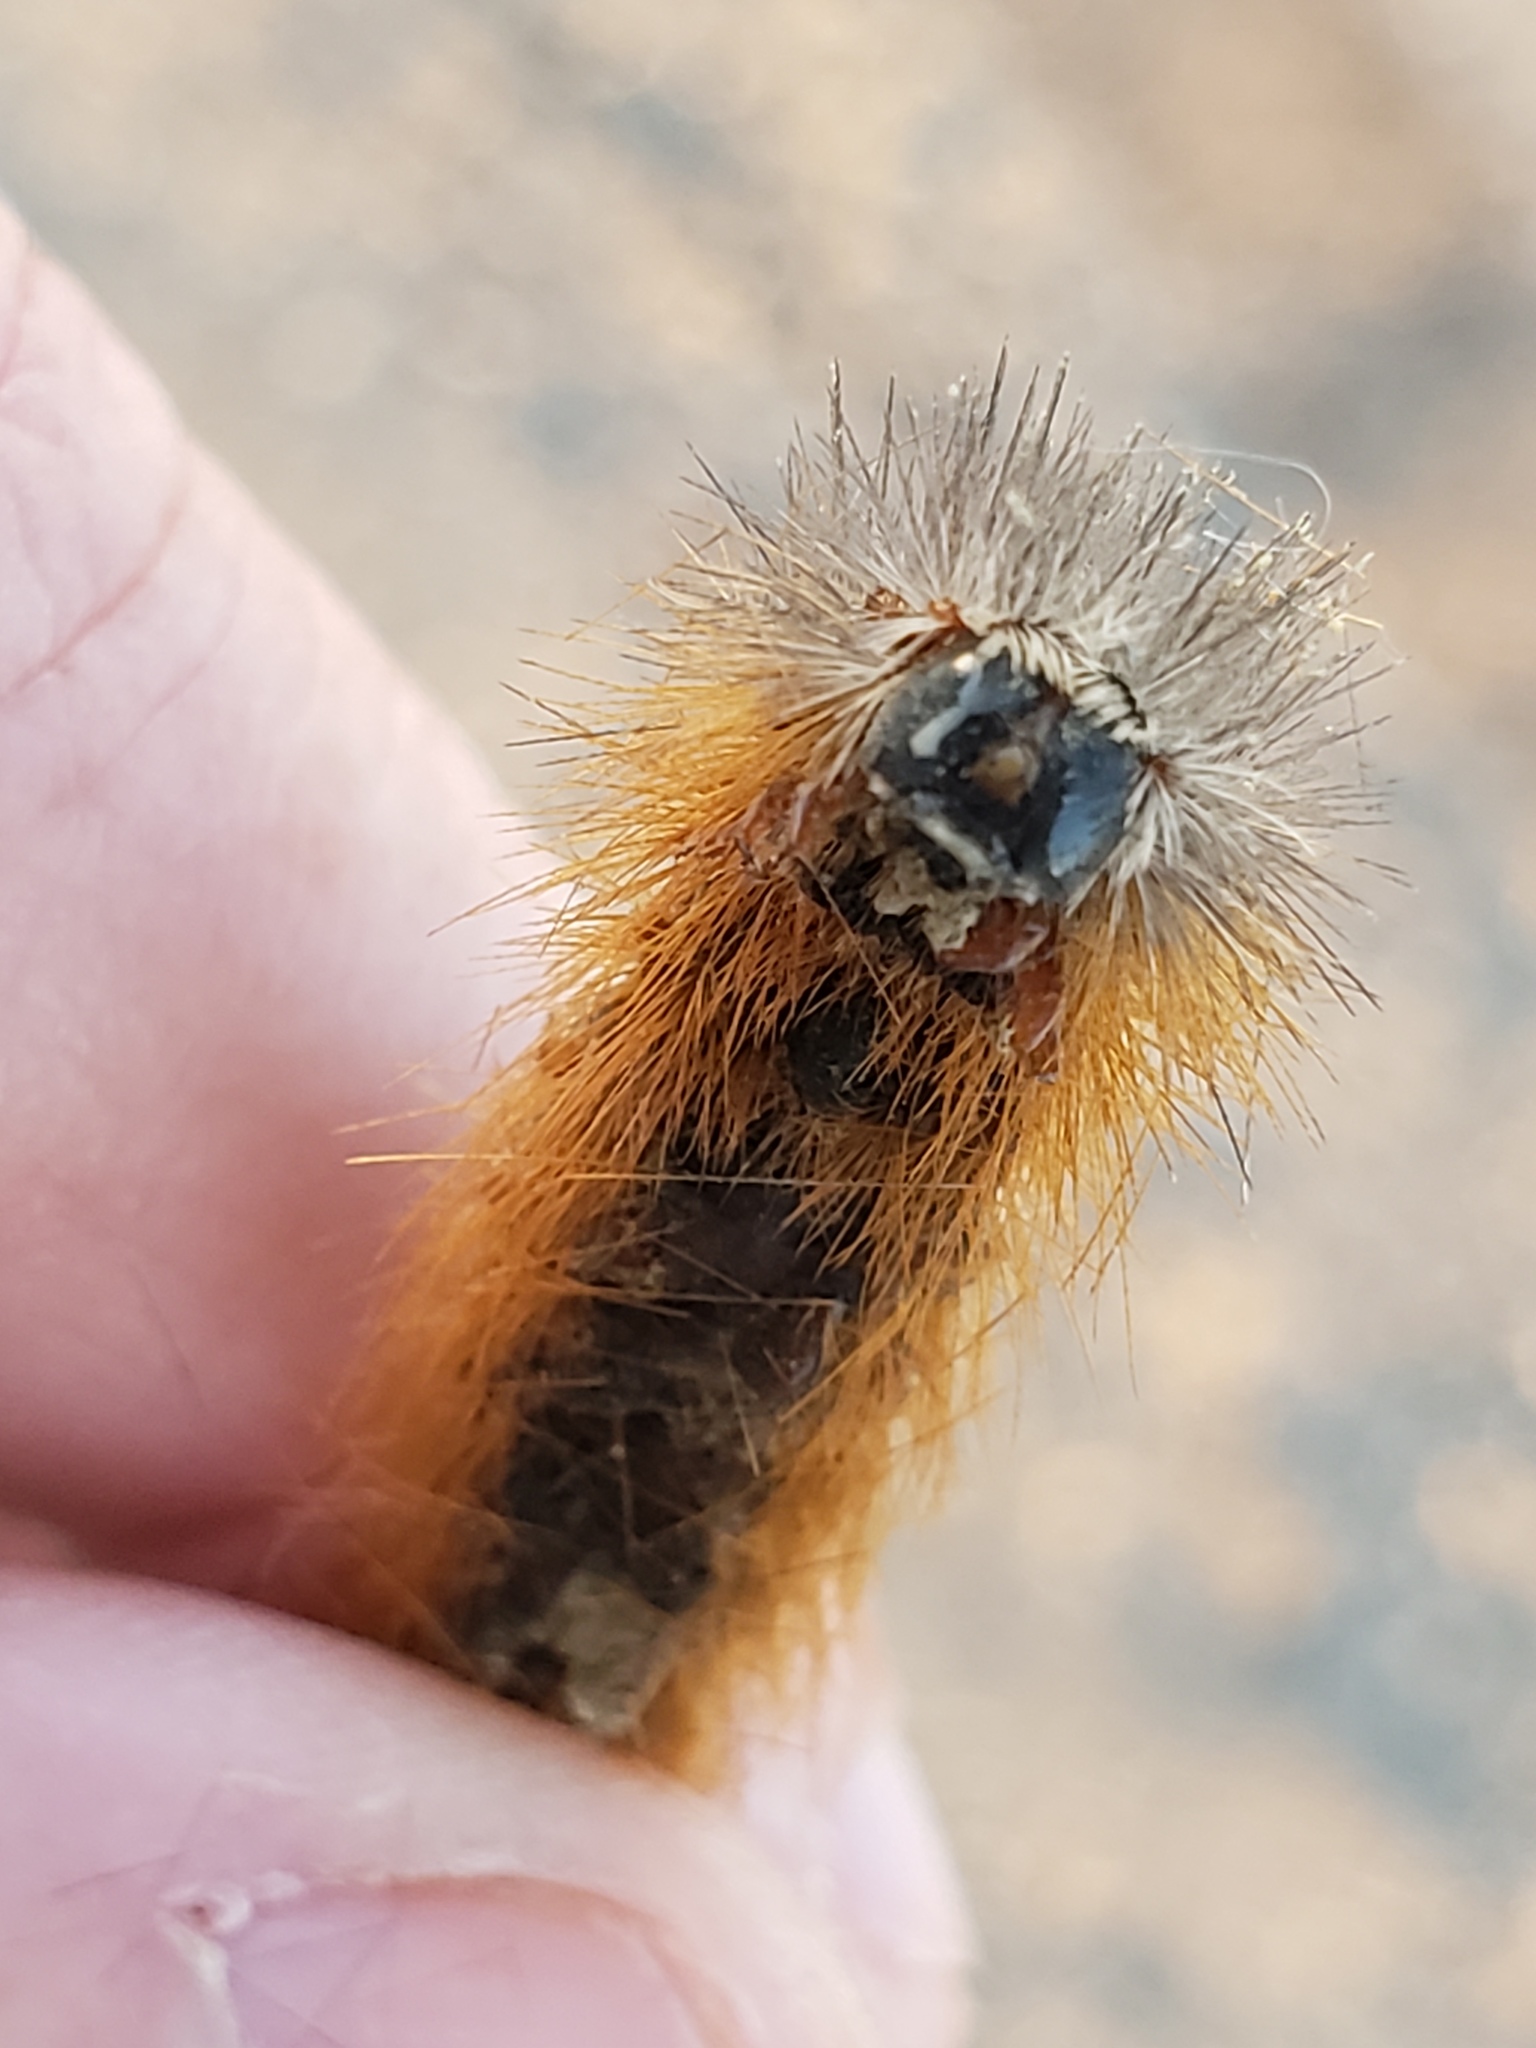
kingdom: Animalia
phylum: Arthropoda
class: Insecta
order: Lepidoptera
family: Erebidae
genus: Estigmene
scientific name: Estigmene acrea
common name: Salt marsh moth
